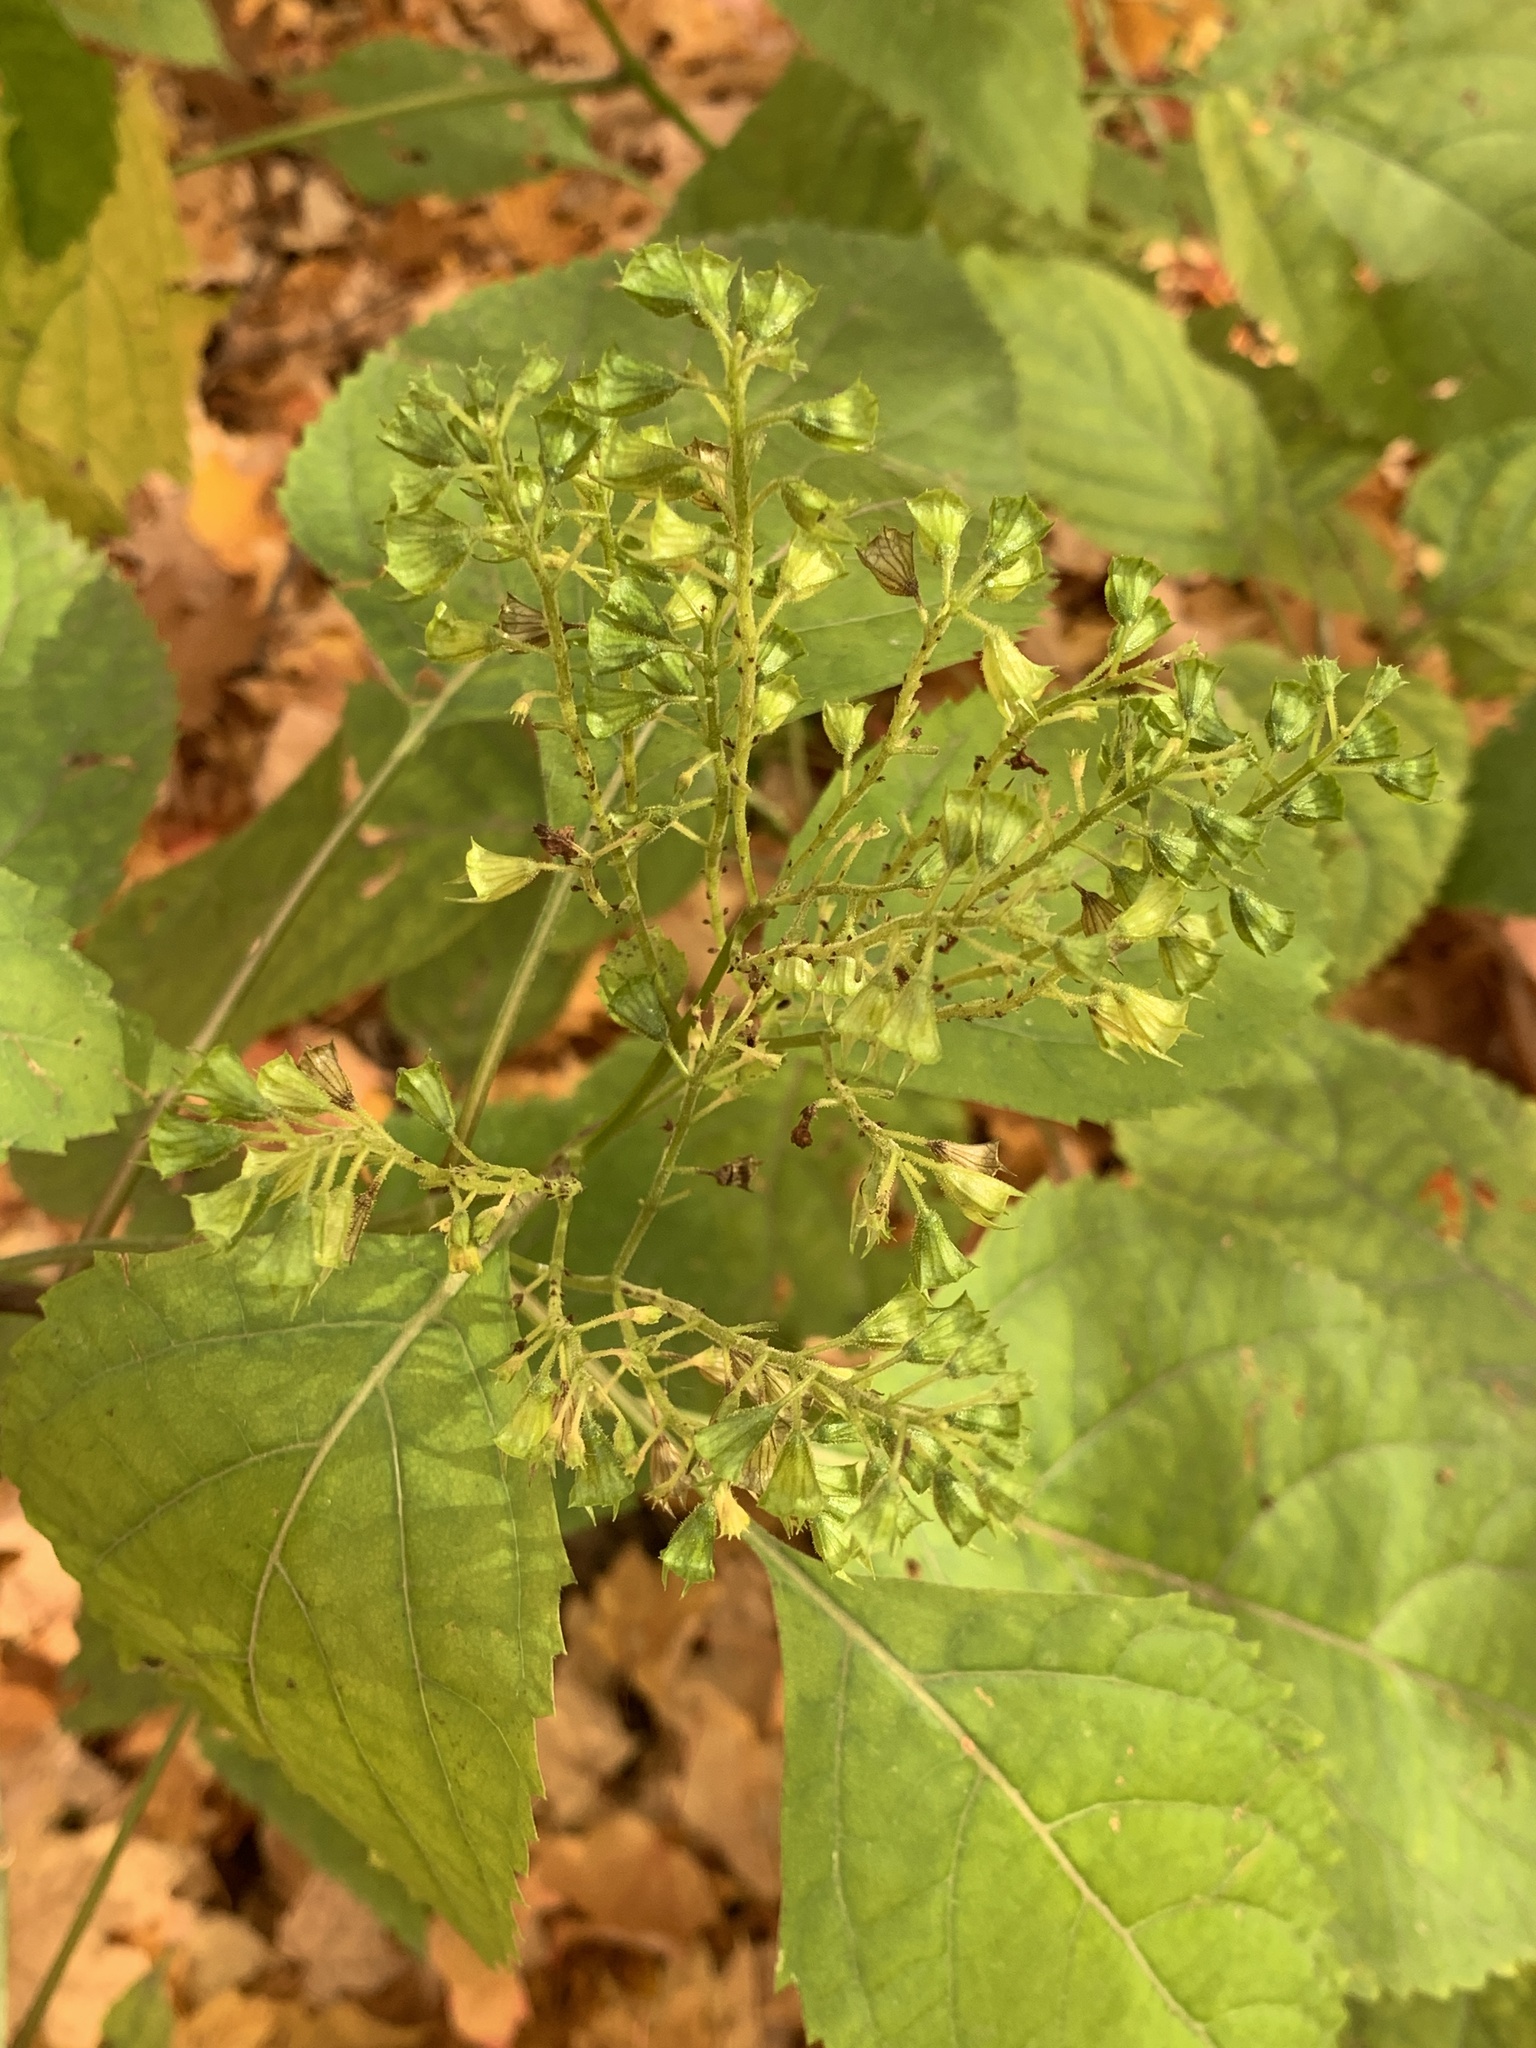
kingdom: Plantae
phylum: Tracheophyta
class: Magnoliopsida
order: Lamiales
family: Lamiaceae
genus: Collinsonia
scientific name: Collinsonia canadensis
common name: Northern horsebalm
